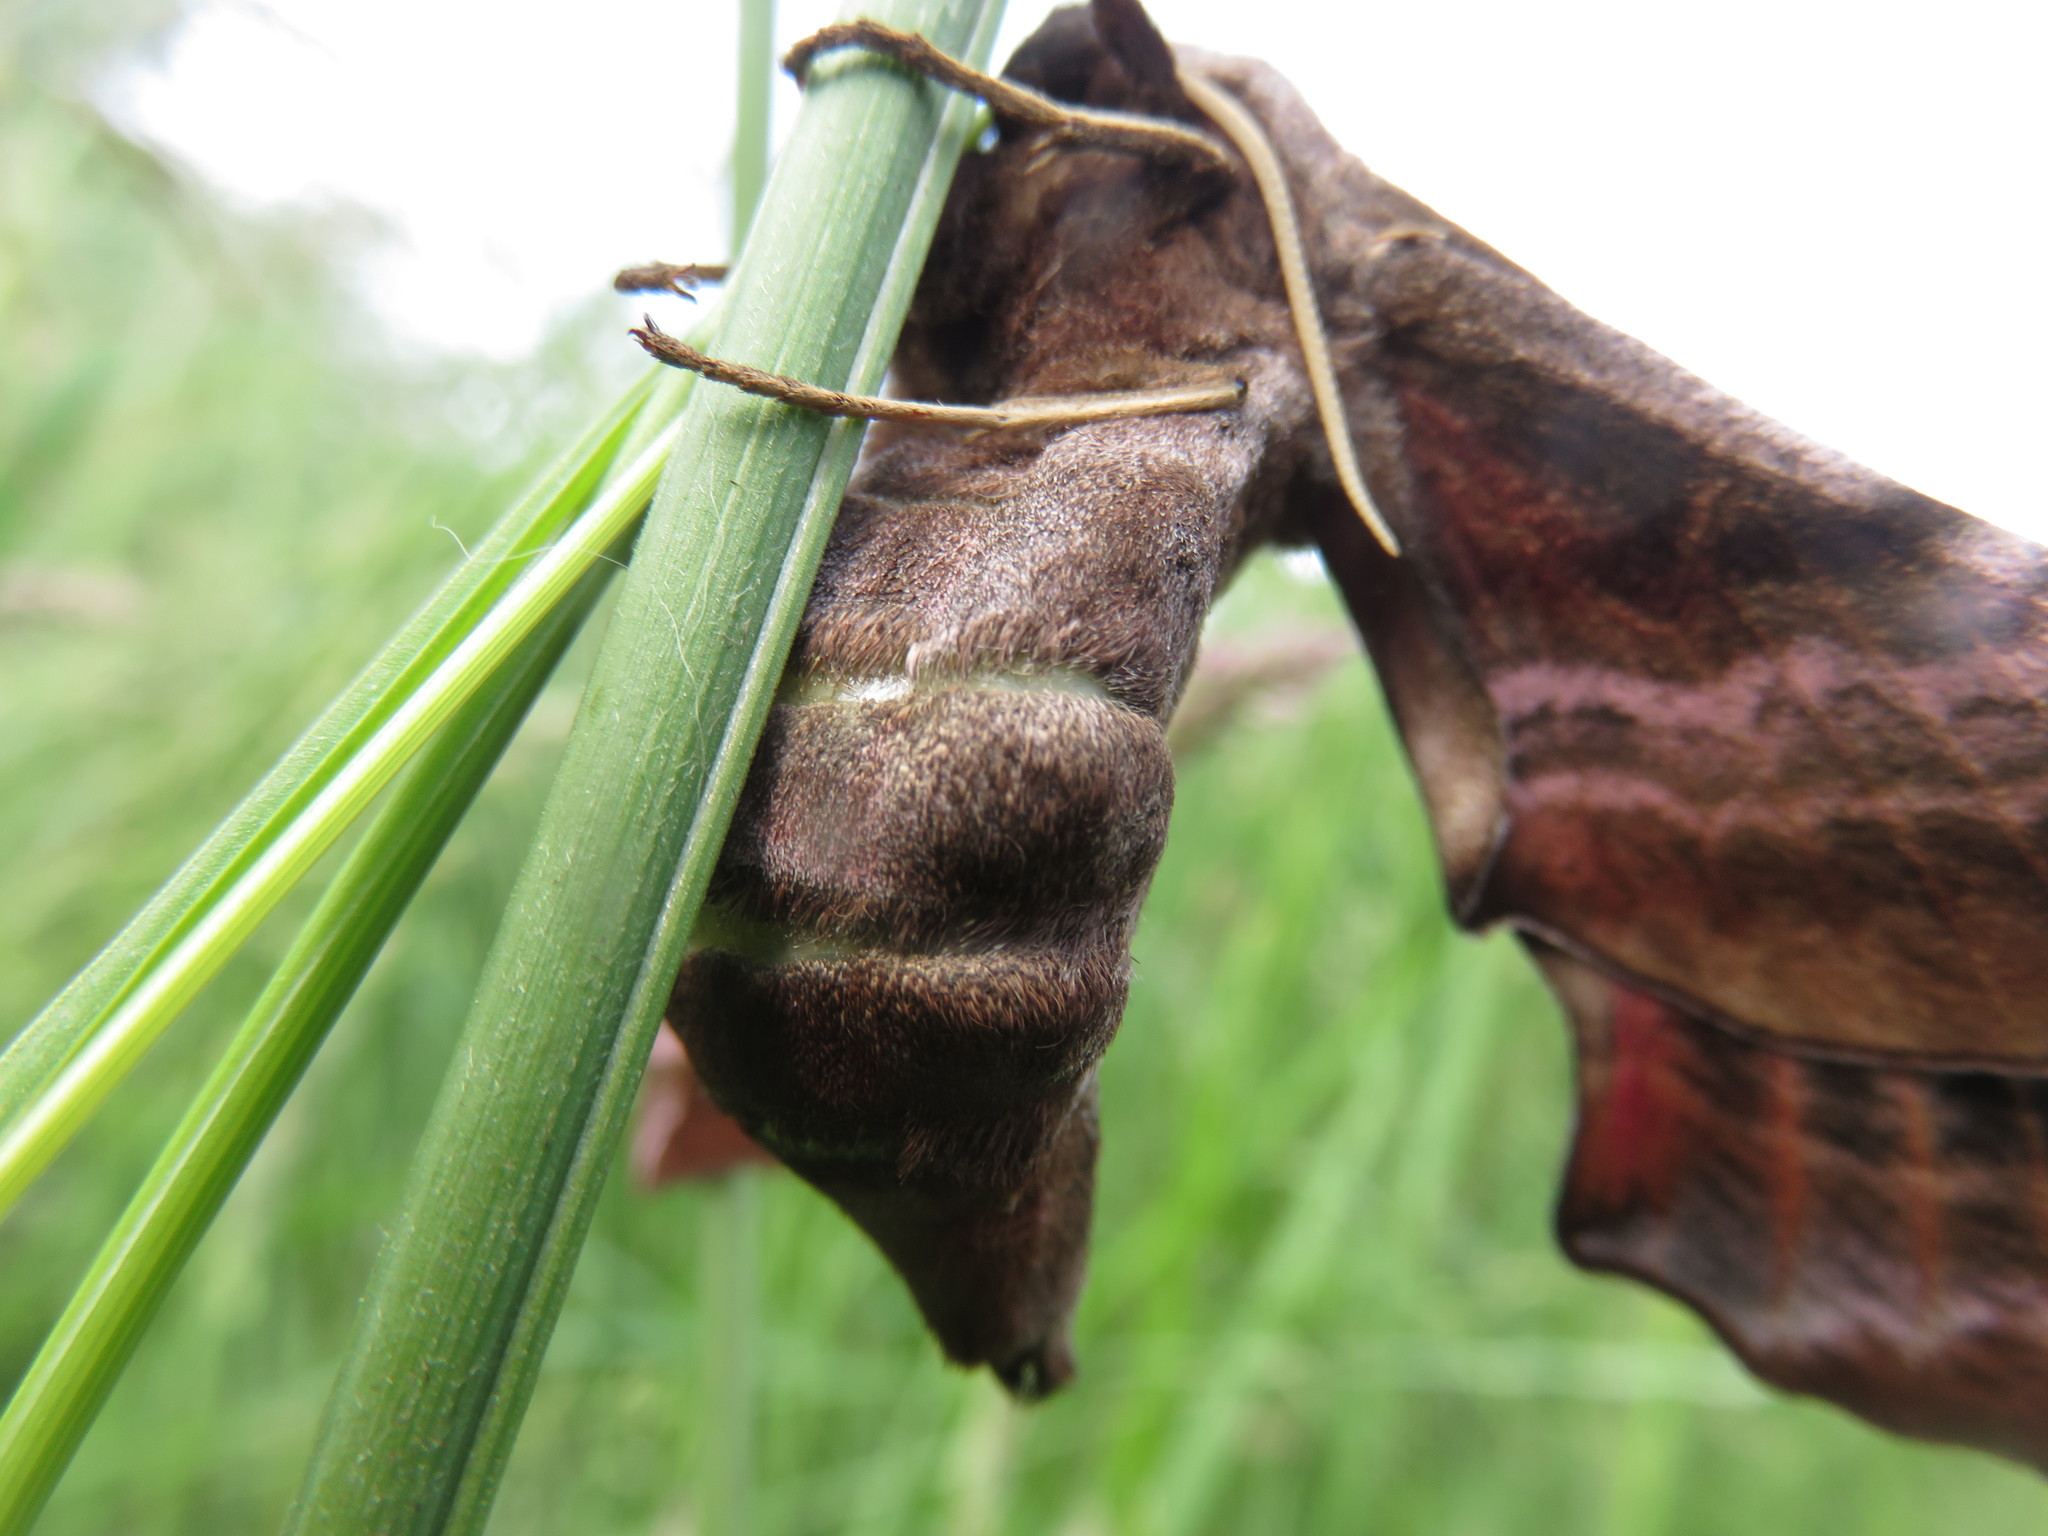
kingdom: Animalia
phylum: Arthropoda
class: Insecta
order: Lepidoptera
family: Sphingidae
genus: Smerinthus
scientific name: Smerinthus ocellata
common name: Eyed hawk-moth
